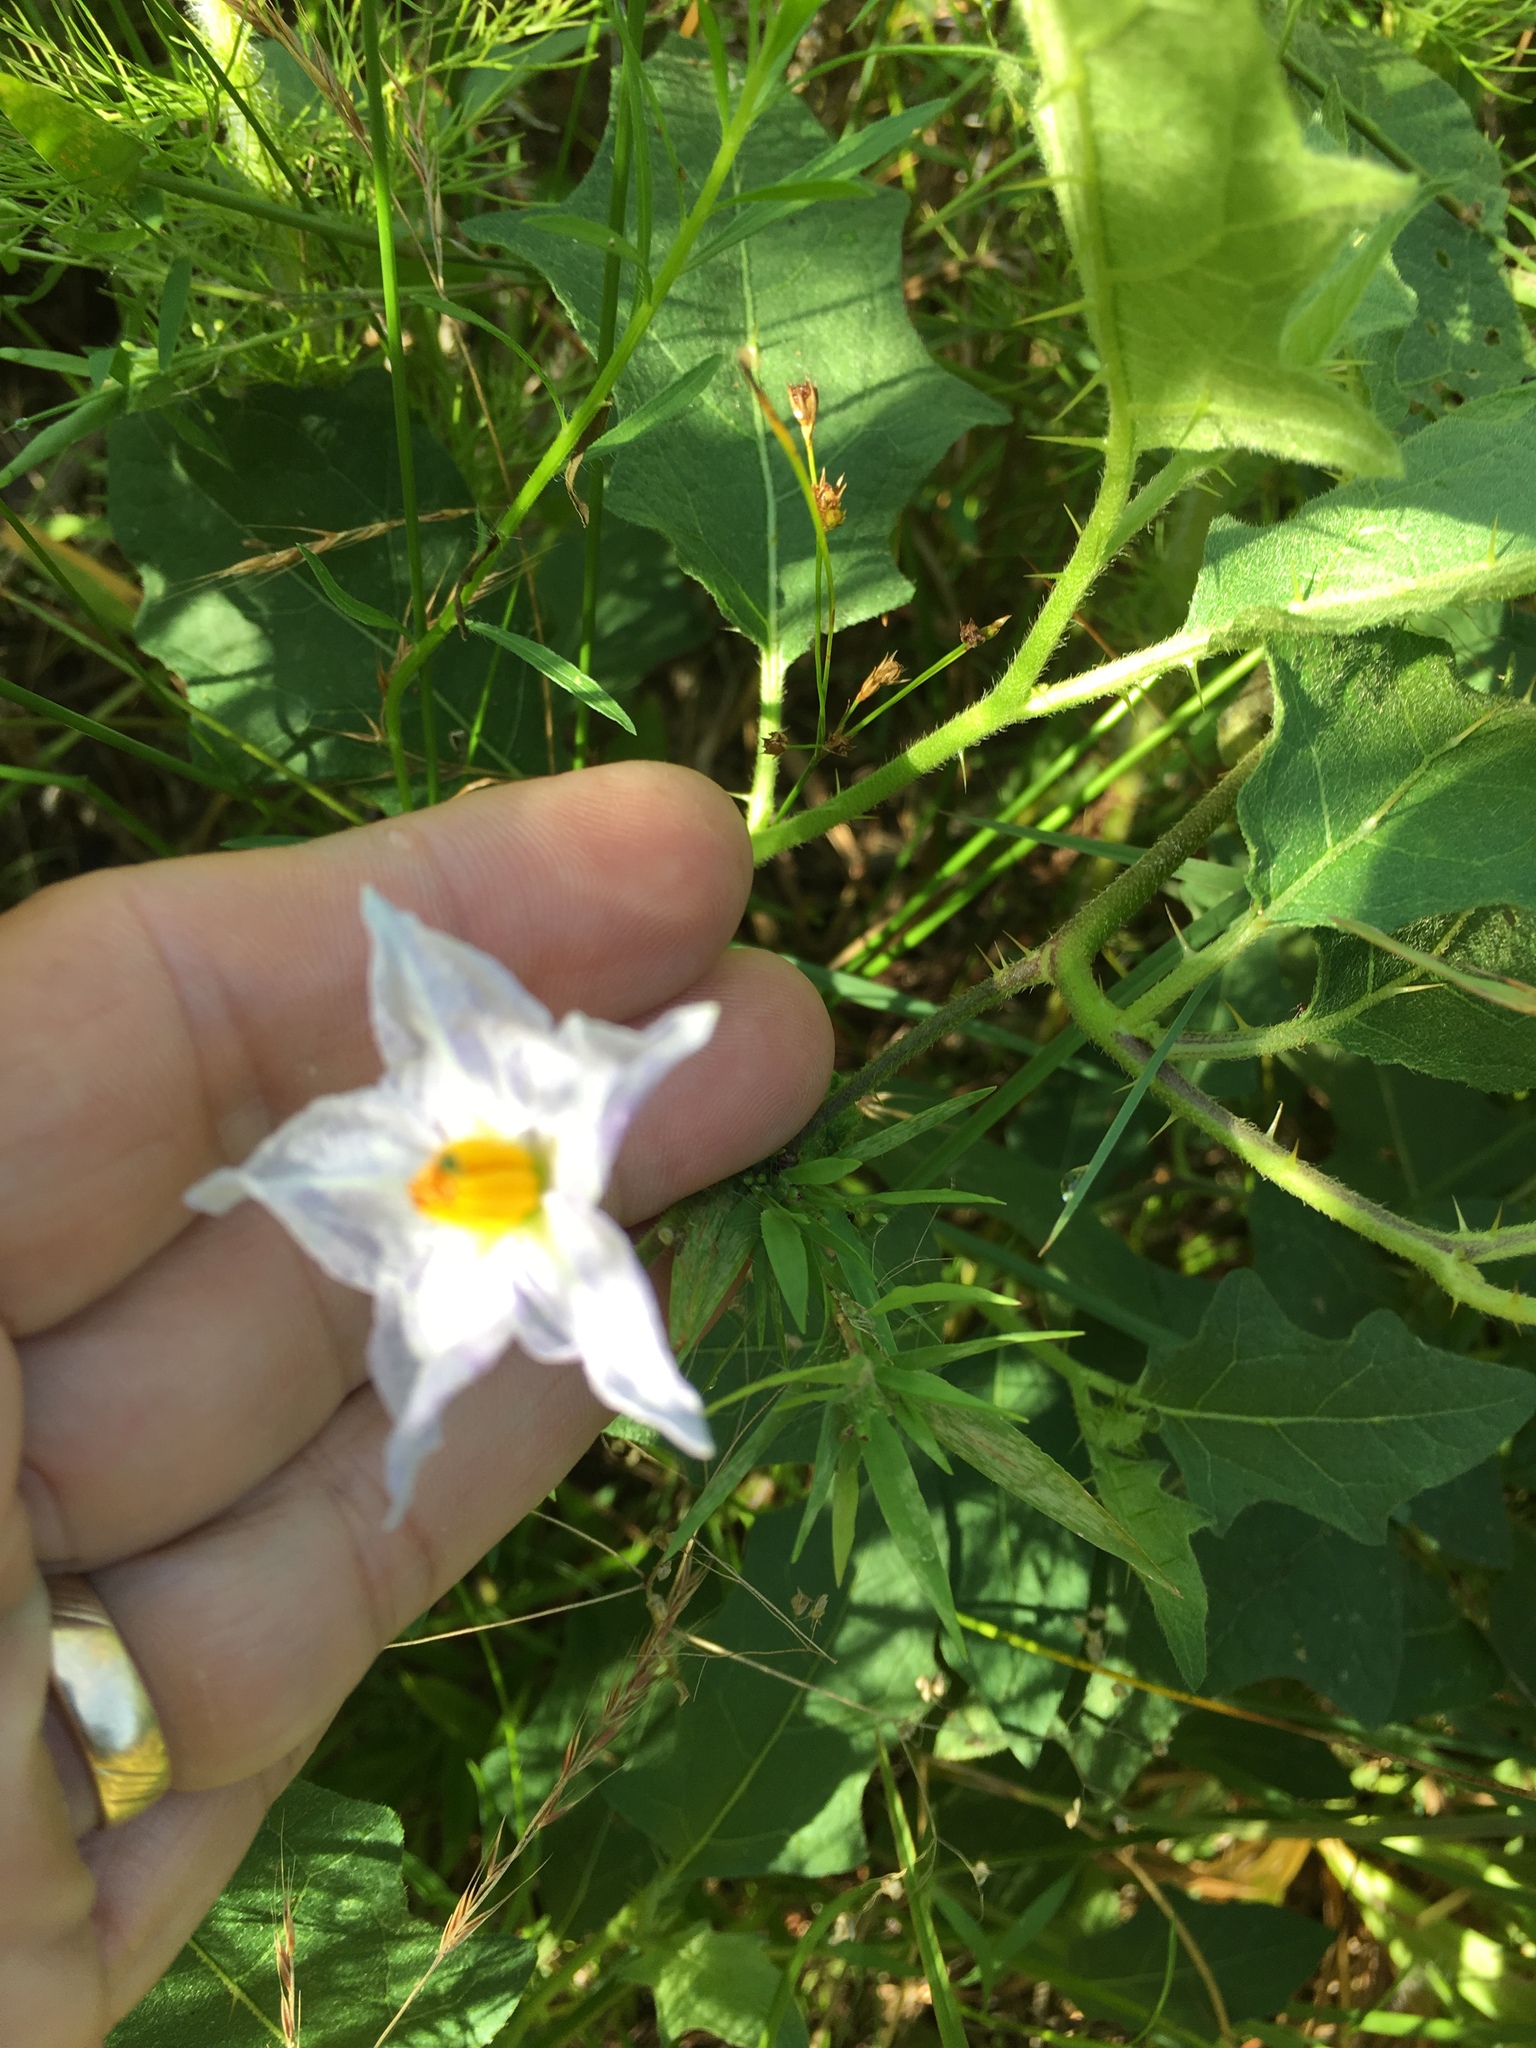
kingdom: Plantae
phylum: Tracheophyta
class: Magnoliopsida
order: Solanales
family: Solanaceae
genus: Solanum
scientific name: Solanum carolinense
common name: Horse-nettle
